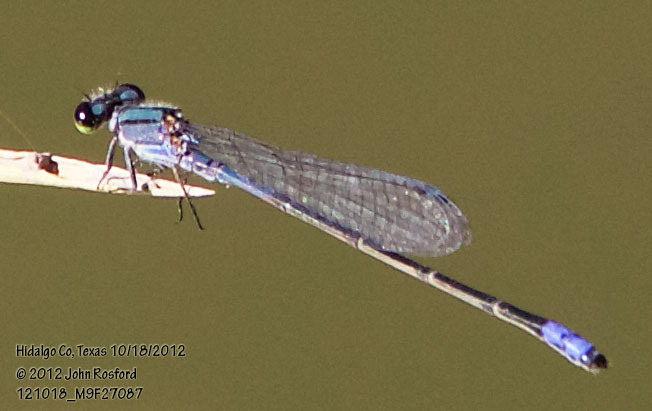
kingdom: Animalia
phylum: Arthropoda
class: Insecta
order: Odonata
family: Coenagrionidae
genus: Enallagma
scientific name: Enallagma novaehispaniae
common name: Neotropical bluet
